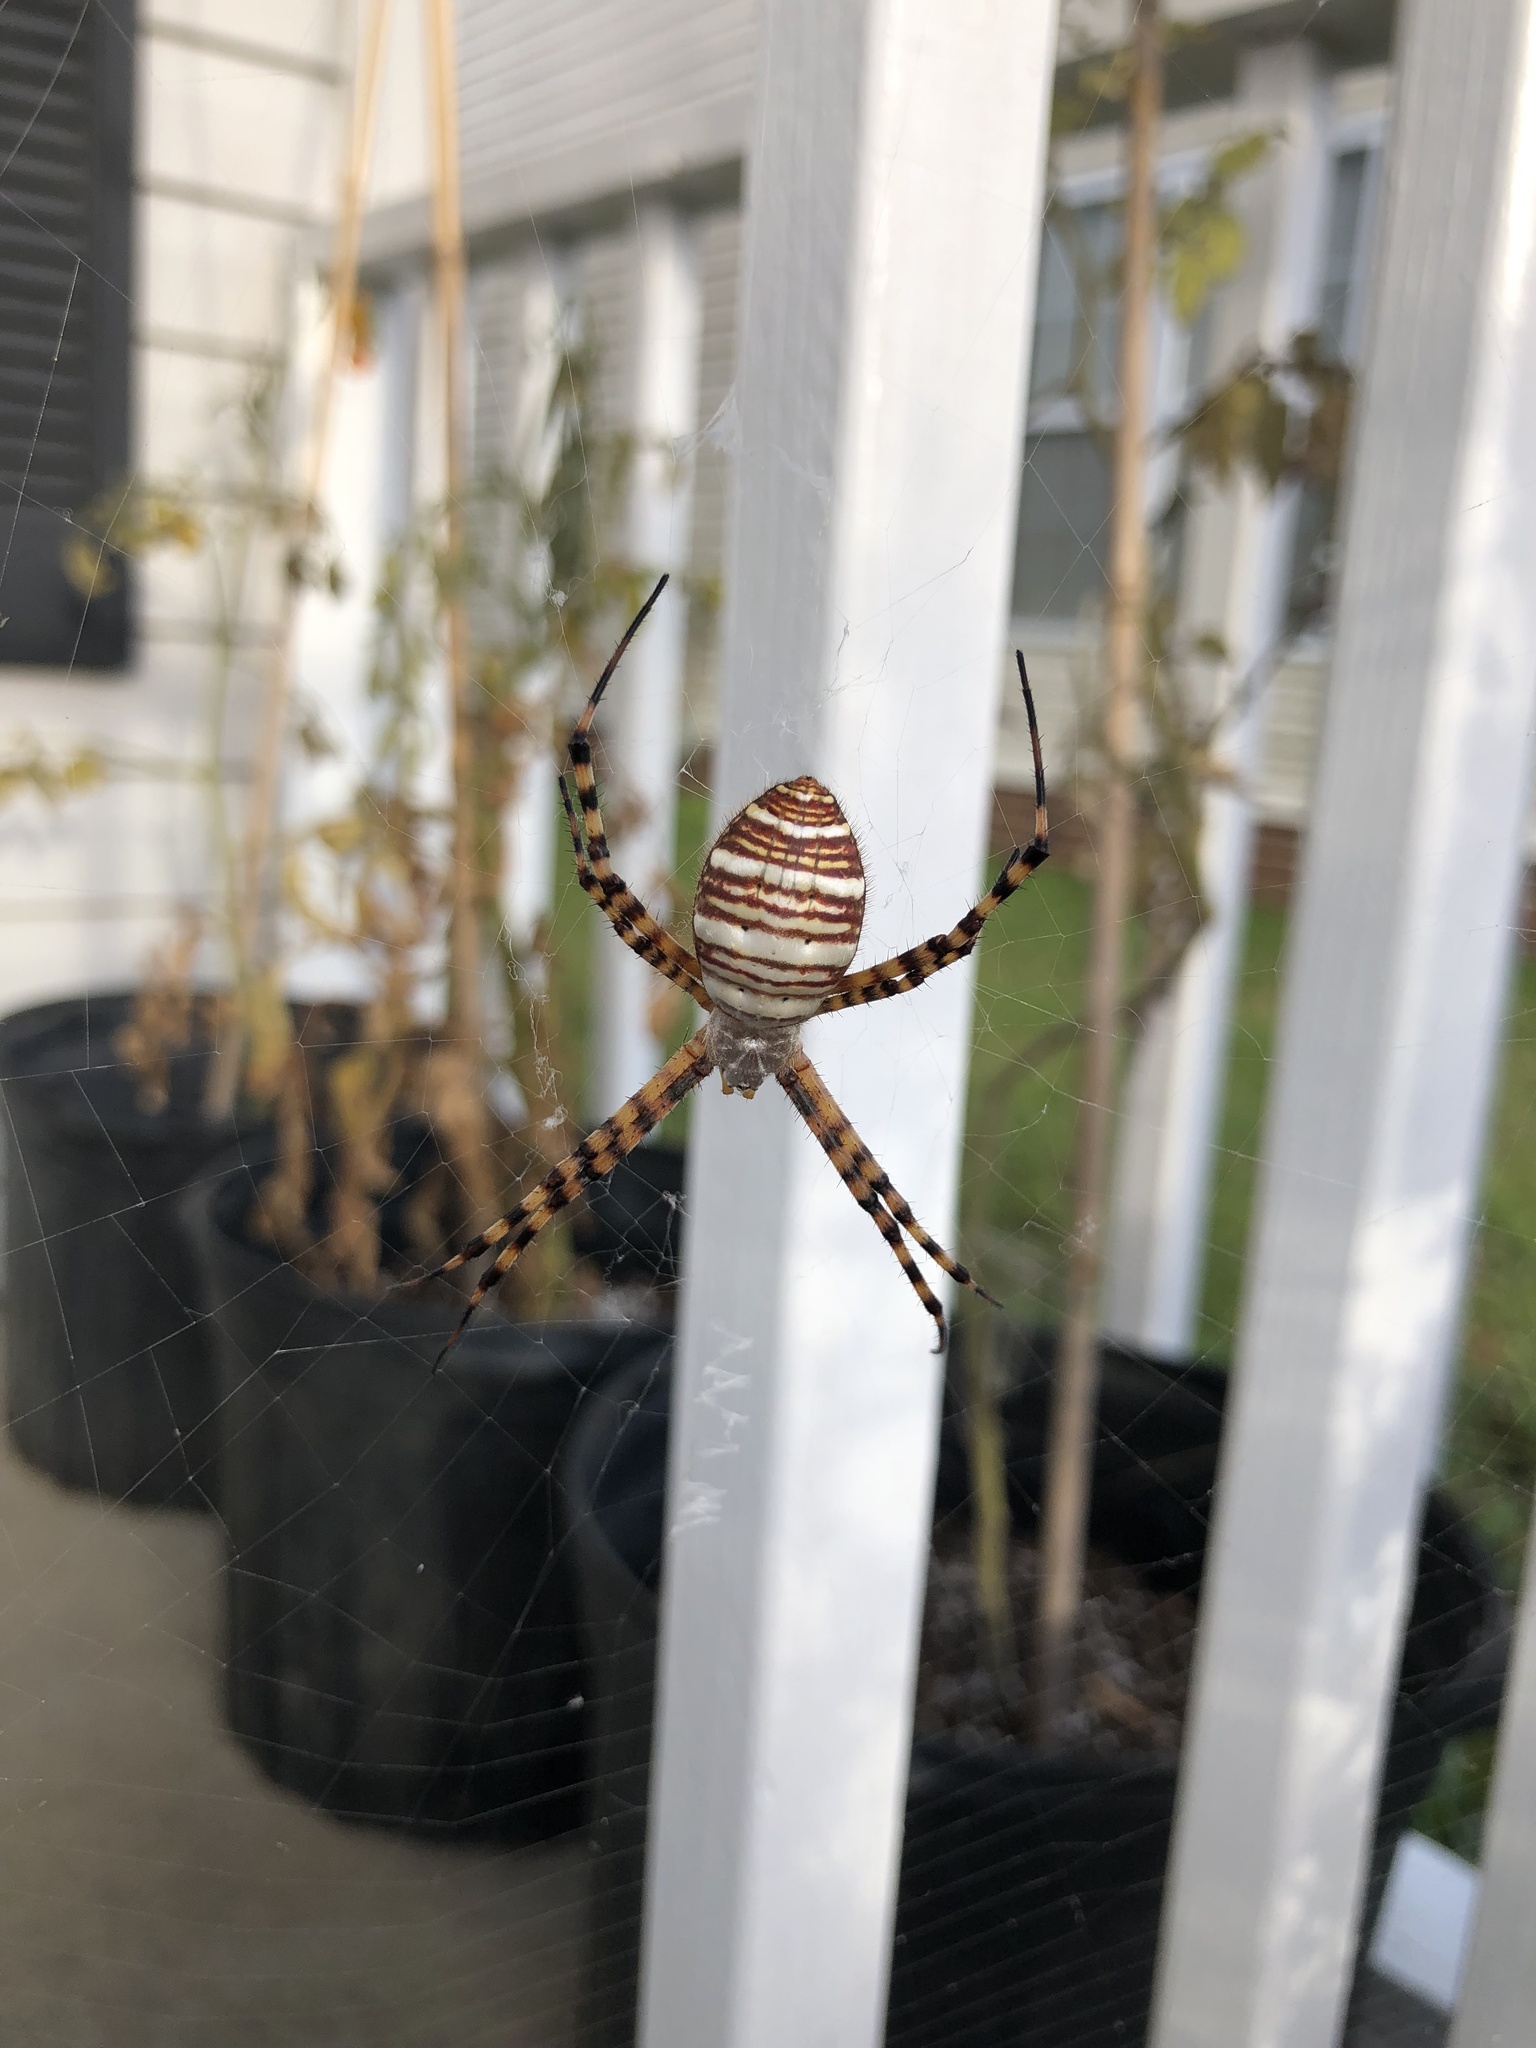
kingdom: Animalia
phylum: Arthropoda
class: Arachnida
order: Araneae
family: Araneidae
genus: Argiope
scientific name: Argiope trifasciata
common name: Banded garden spider
